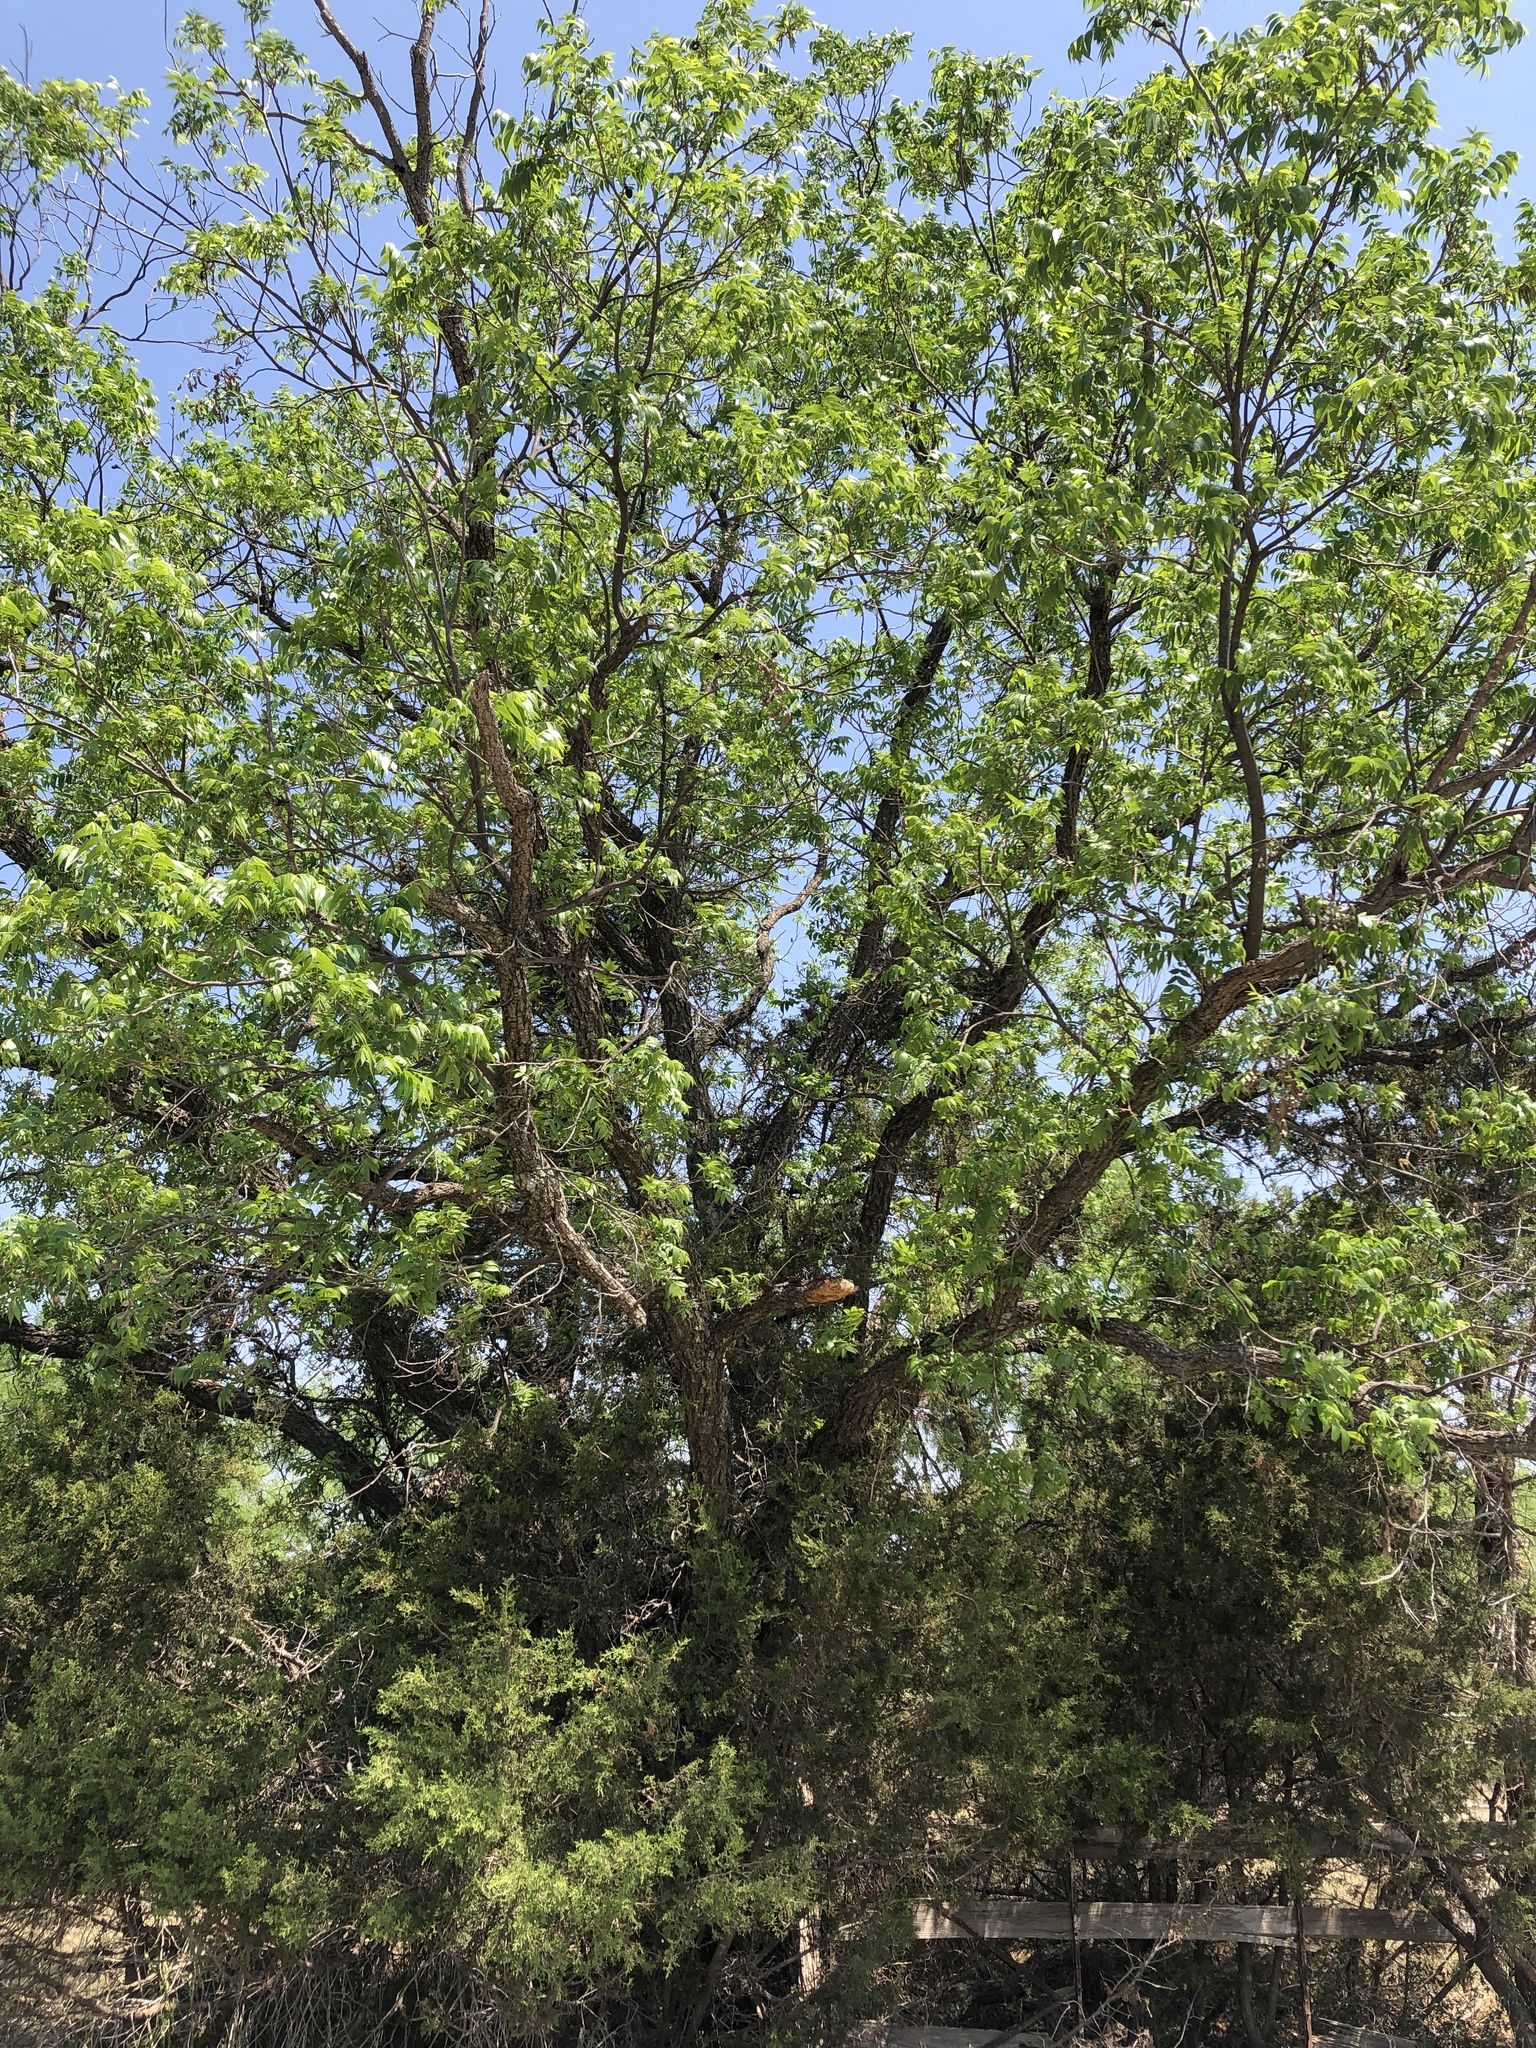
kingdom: Plantae
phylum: Tracheophyta
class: Magnoliopsida
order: Fagales
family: Juglandaceae
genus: Carya
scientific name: Carya illinoinensis
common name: Pecan
